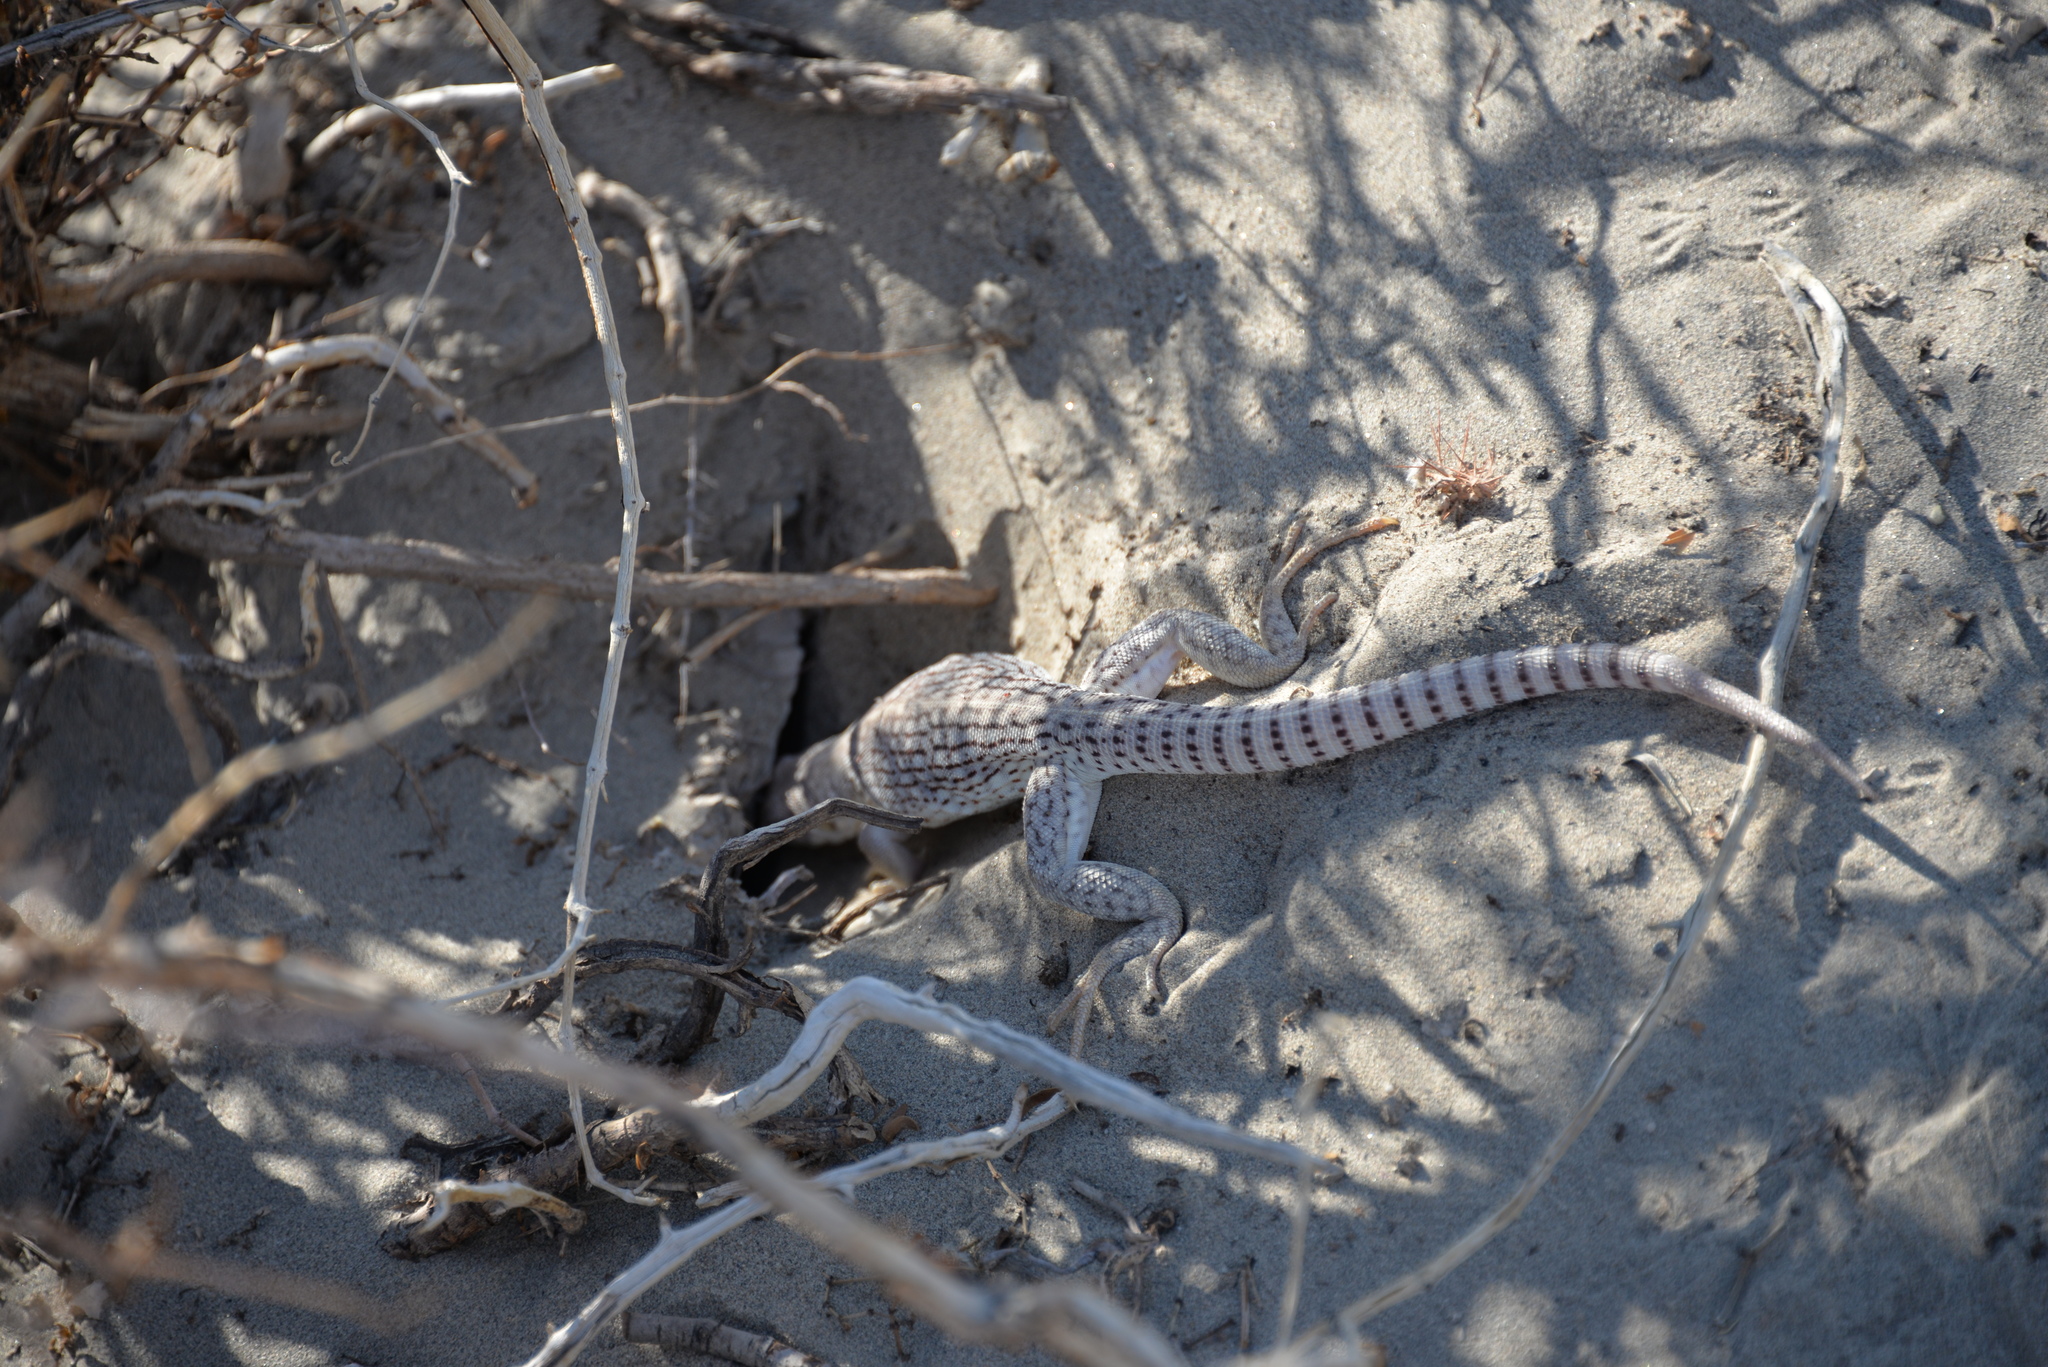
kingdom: Animalia
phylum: Chordata
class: Squamata
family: Iguanidae
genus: Dipsosaurus
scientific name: Dipsosaurus dorsalis
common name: Desert iguana
